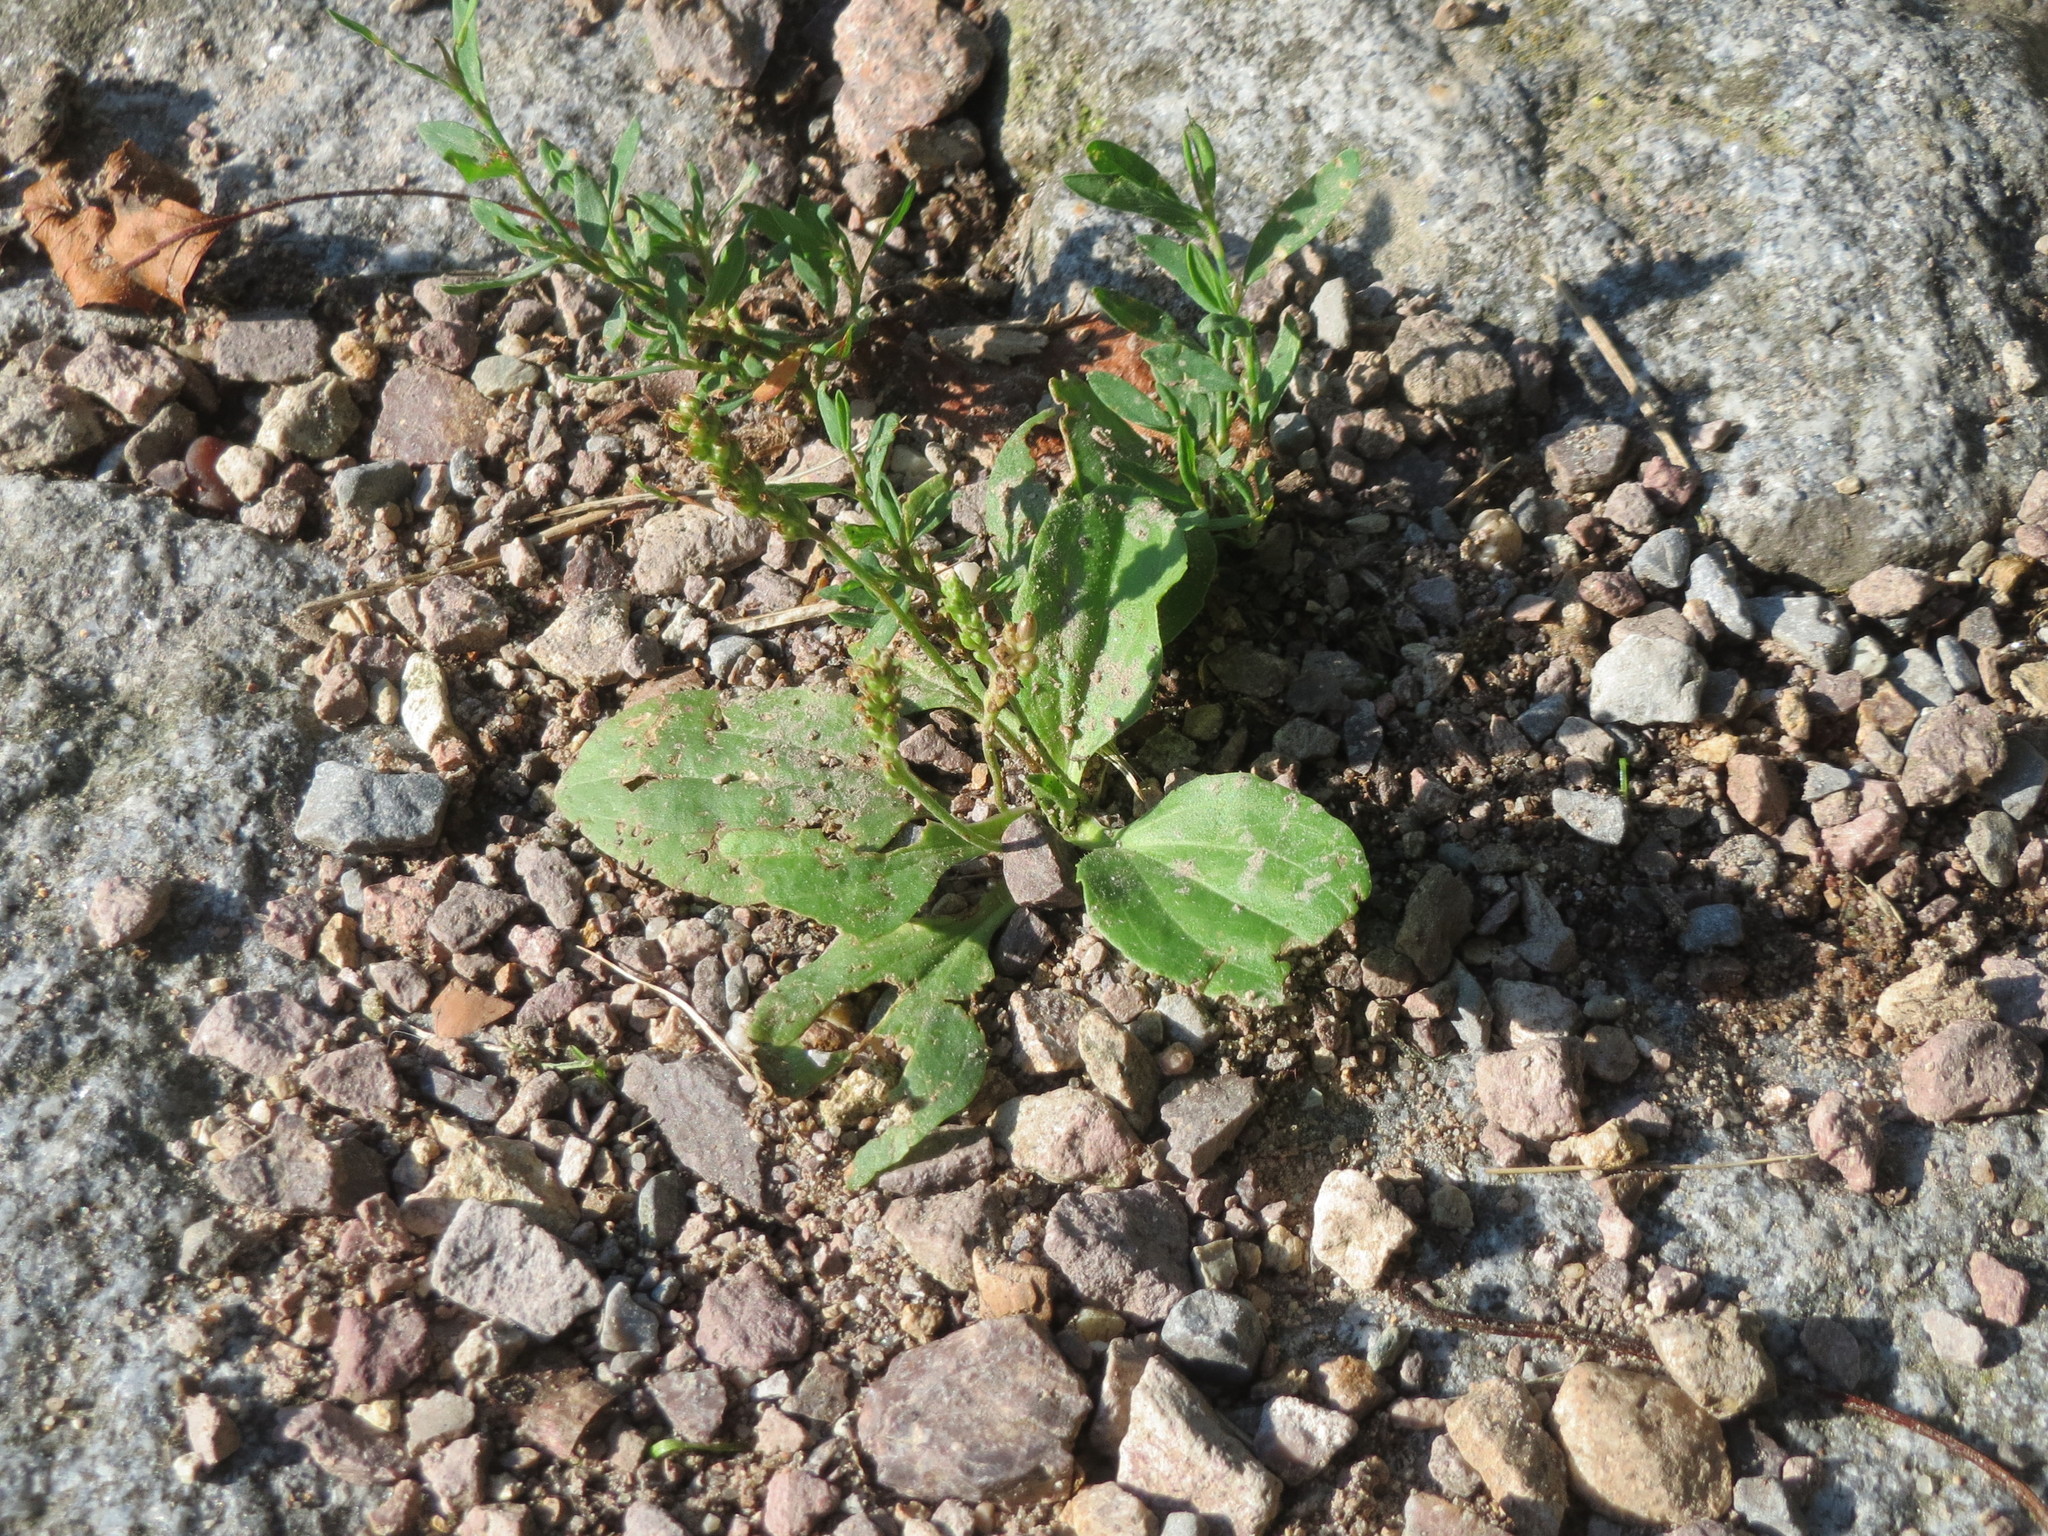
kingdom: Plantae
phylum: Tracheophyta
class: Magnoliopsida
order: Lamiales
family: Plantaginaceae
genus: Plantago
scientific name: Plantago major
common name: Common plantain
